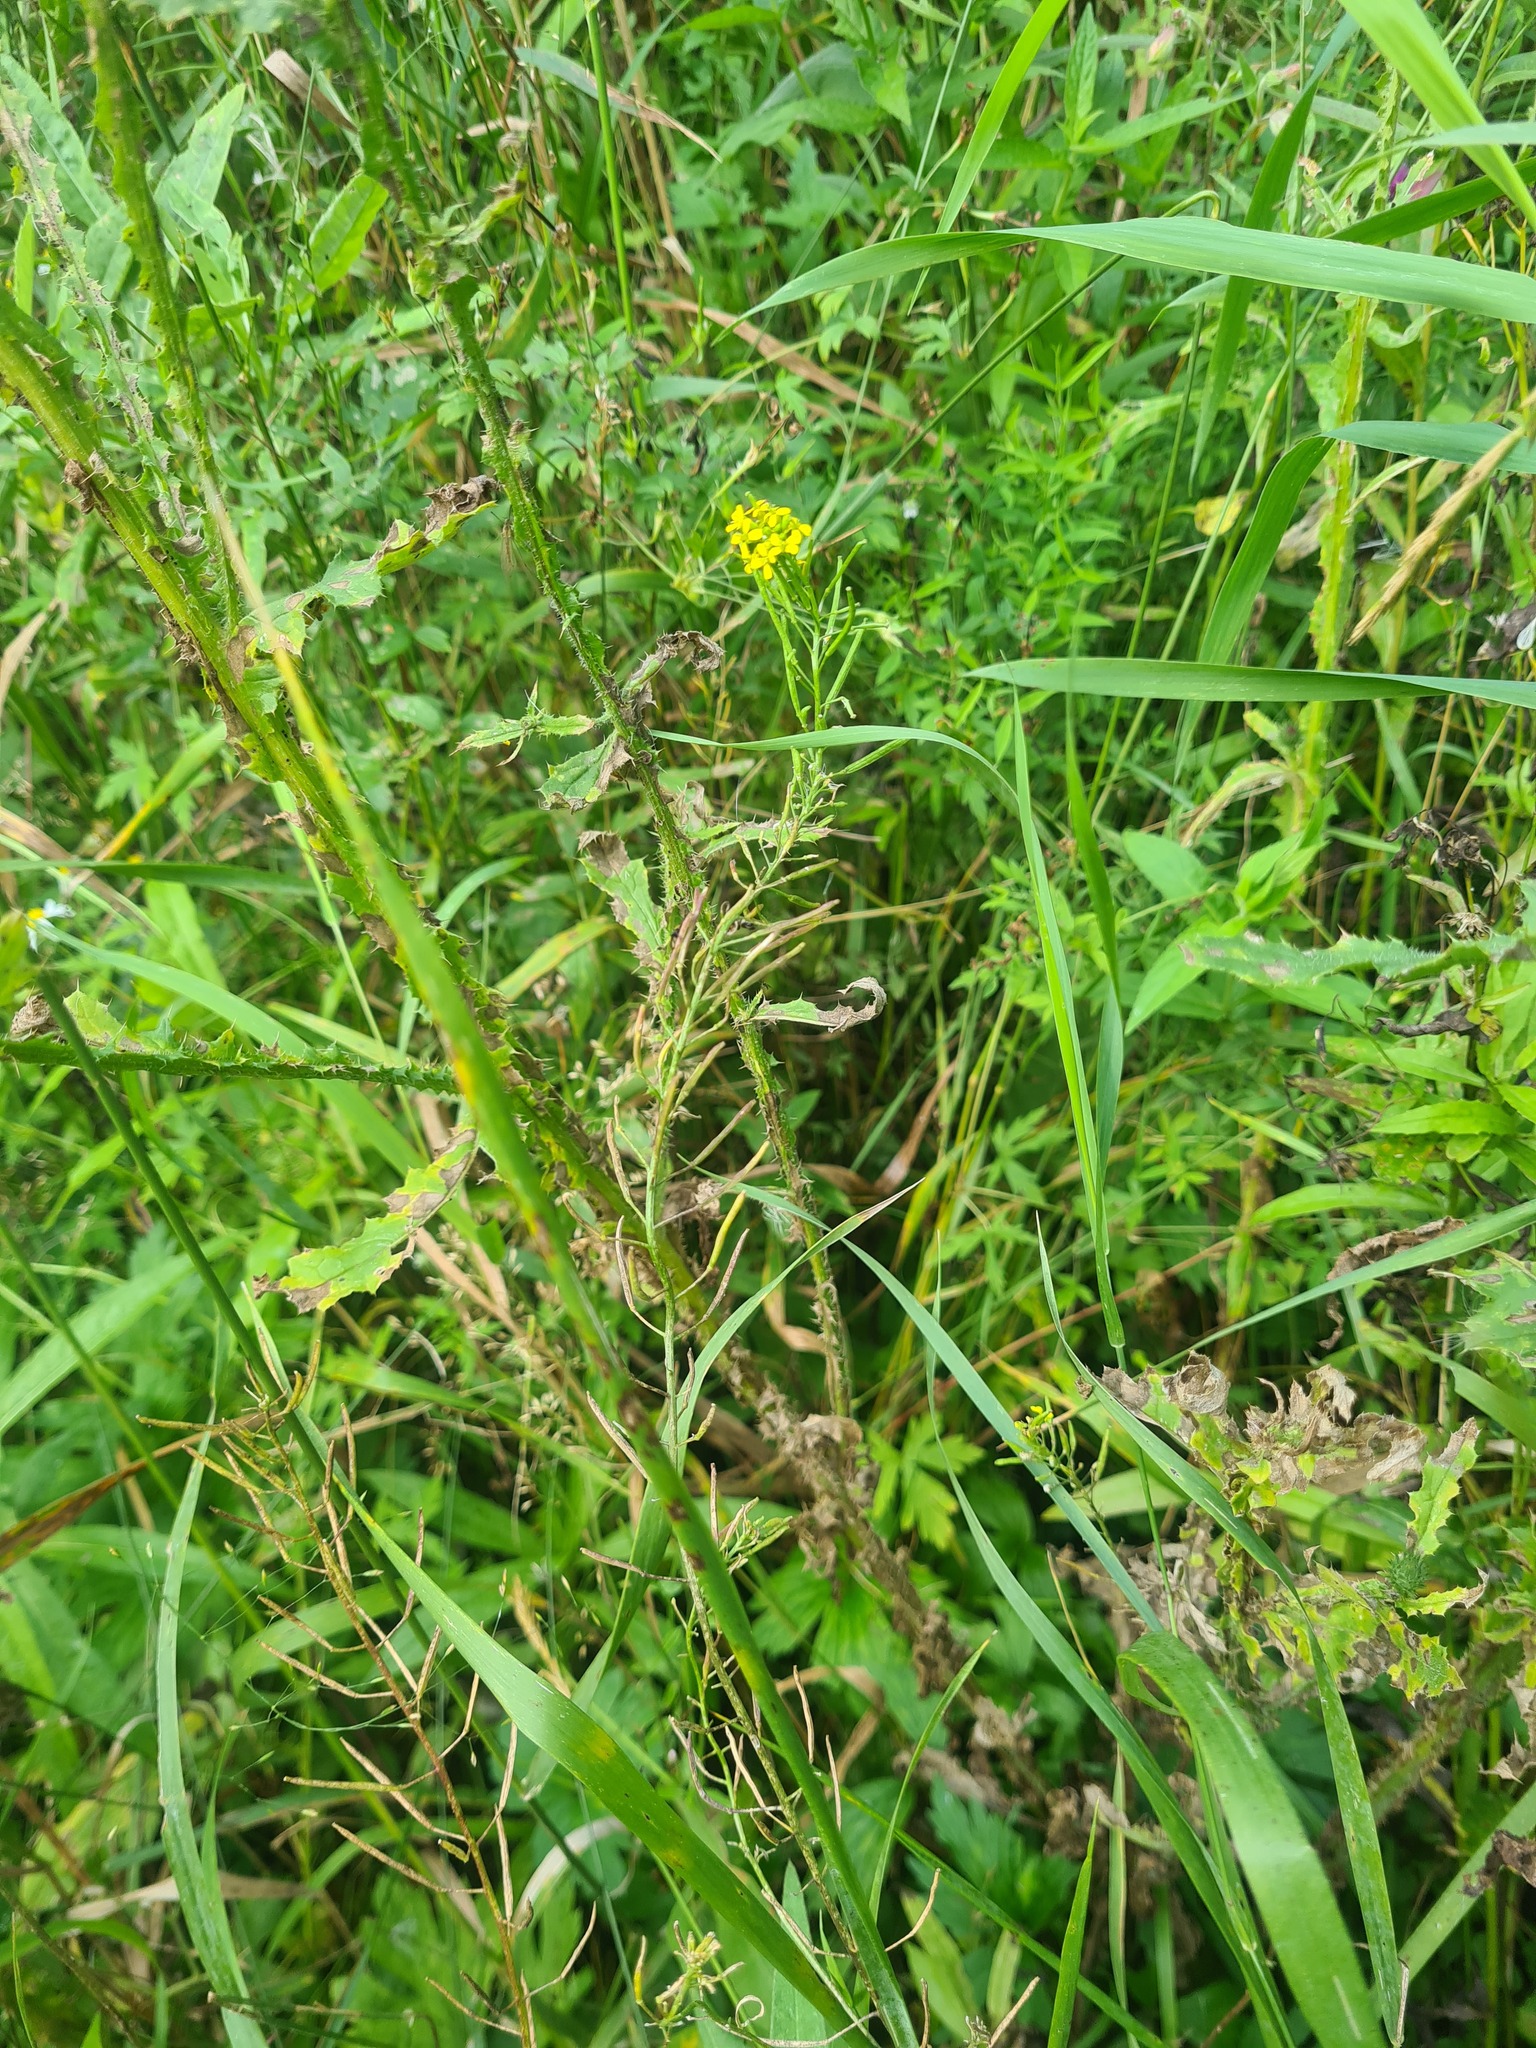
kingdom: Plantae
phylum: Tracheophyta
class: Magnoliopsida
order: Brassicales
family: Brassicaceae
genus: Erysimum
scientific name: Erysimum cheiranthoides
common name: Treacle mustard
